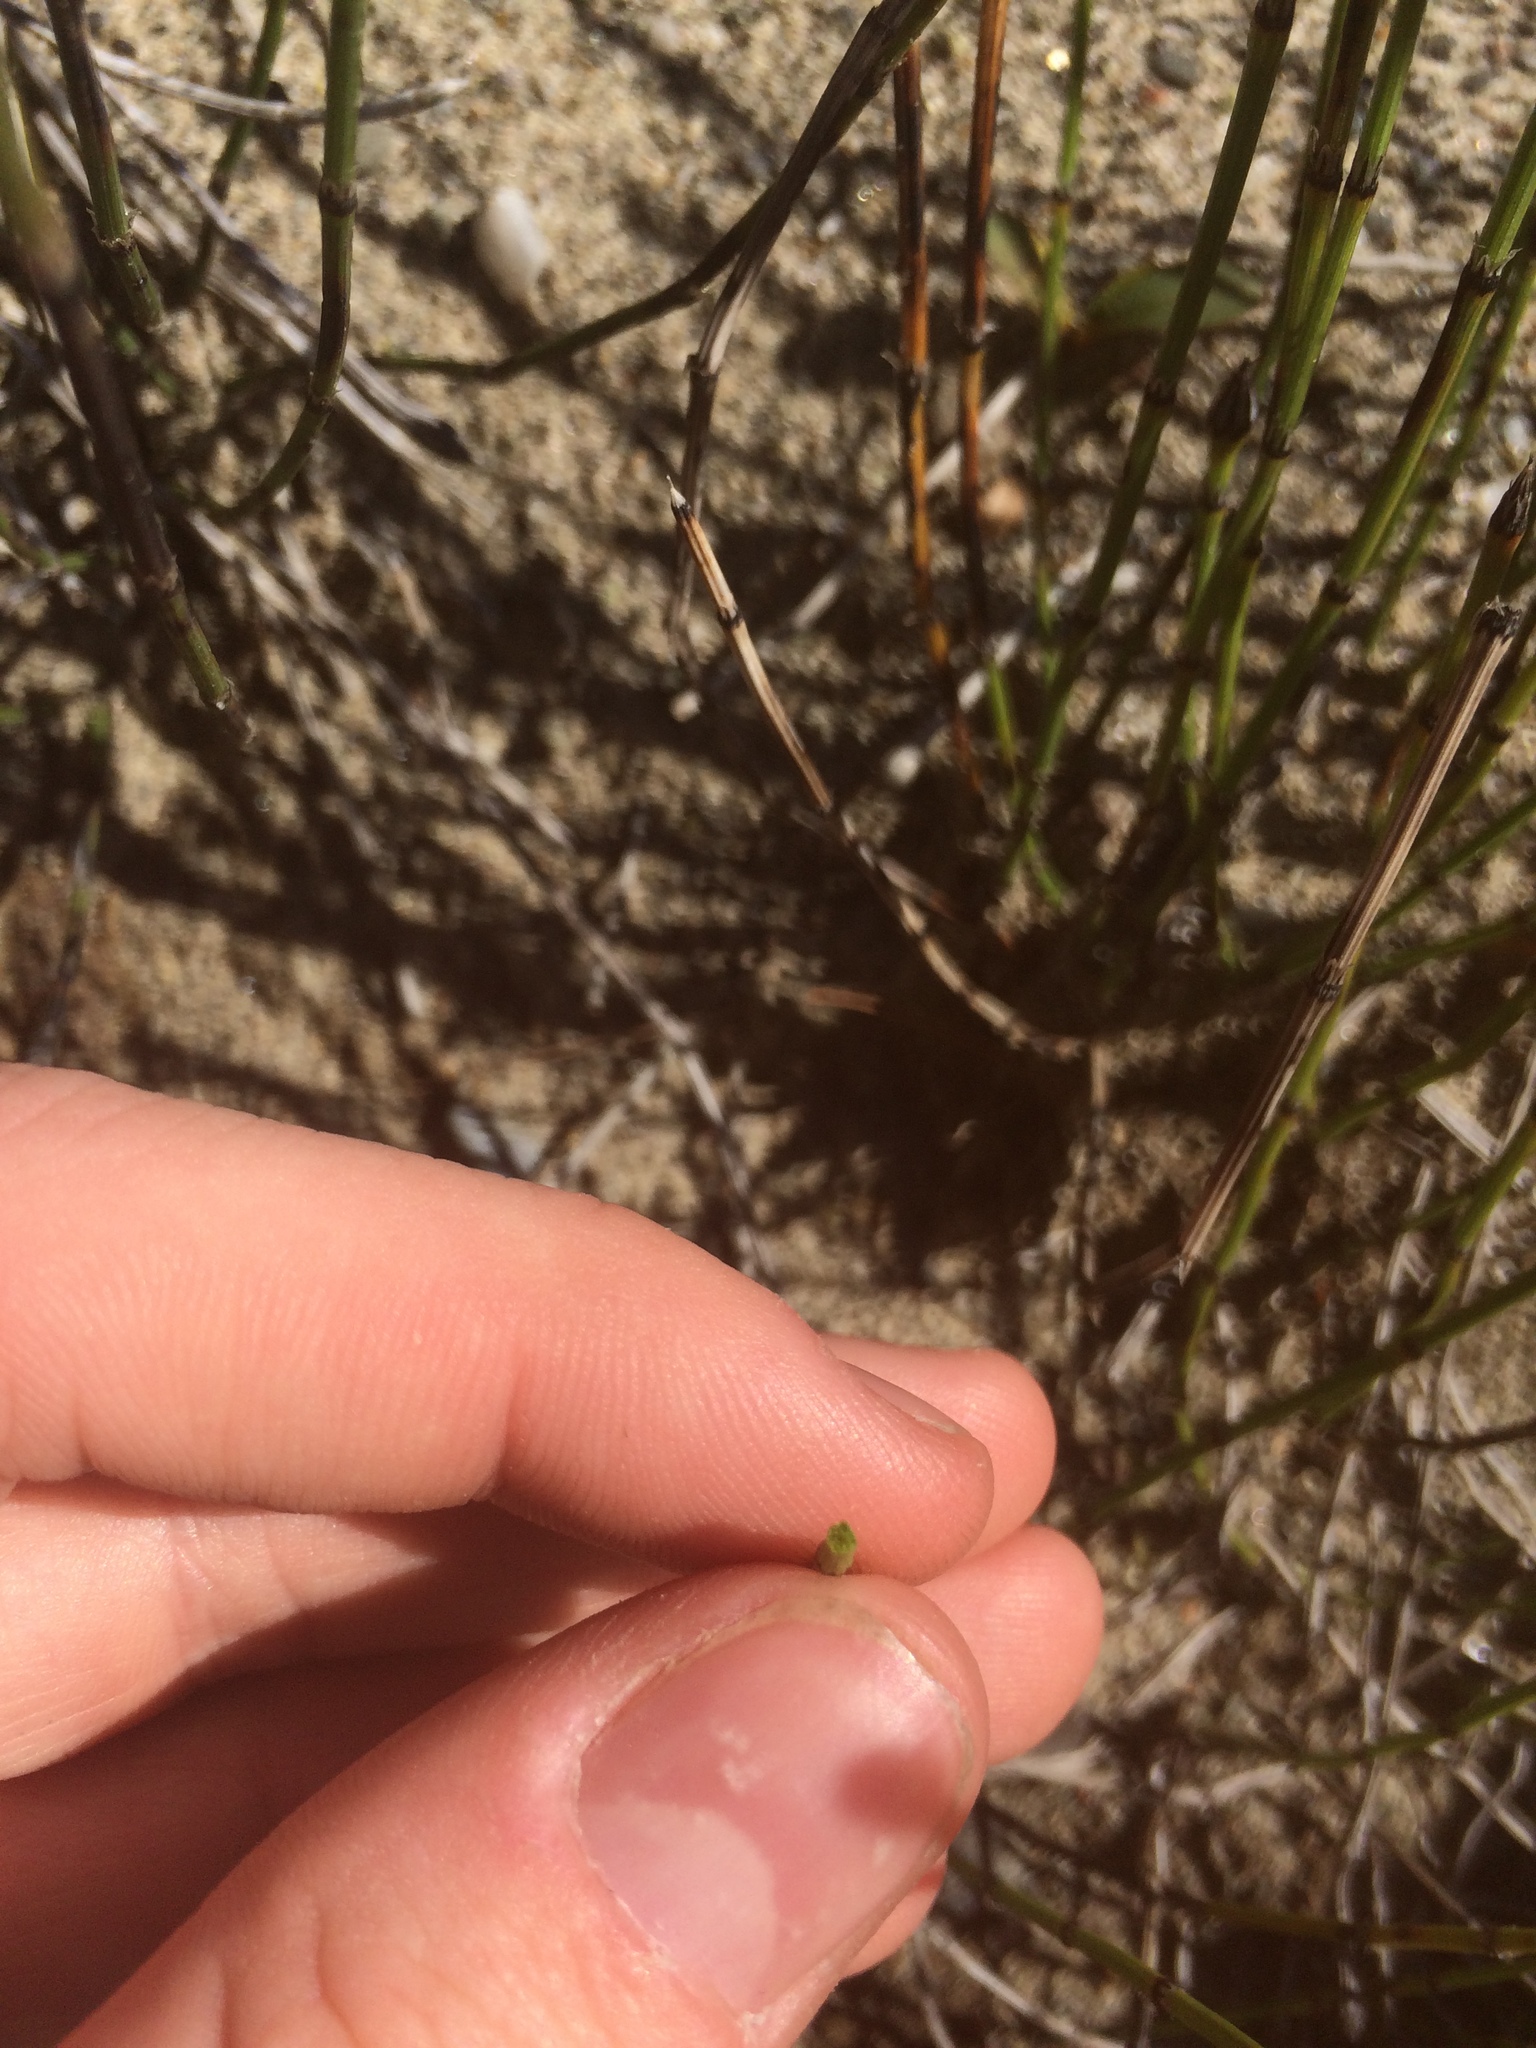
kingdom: Plantae
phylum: Tracheophyta
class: Polypodiopsida
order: Equisetales
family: Equisetaceae
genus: Equisetum
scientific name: Equisetum variegatum
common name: Variegated horsetail
